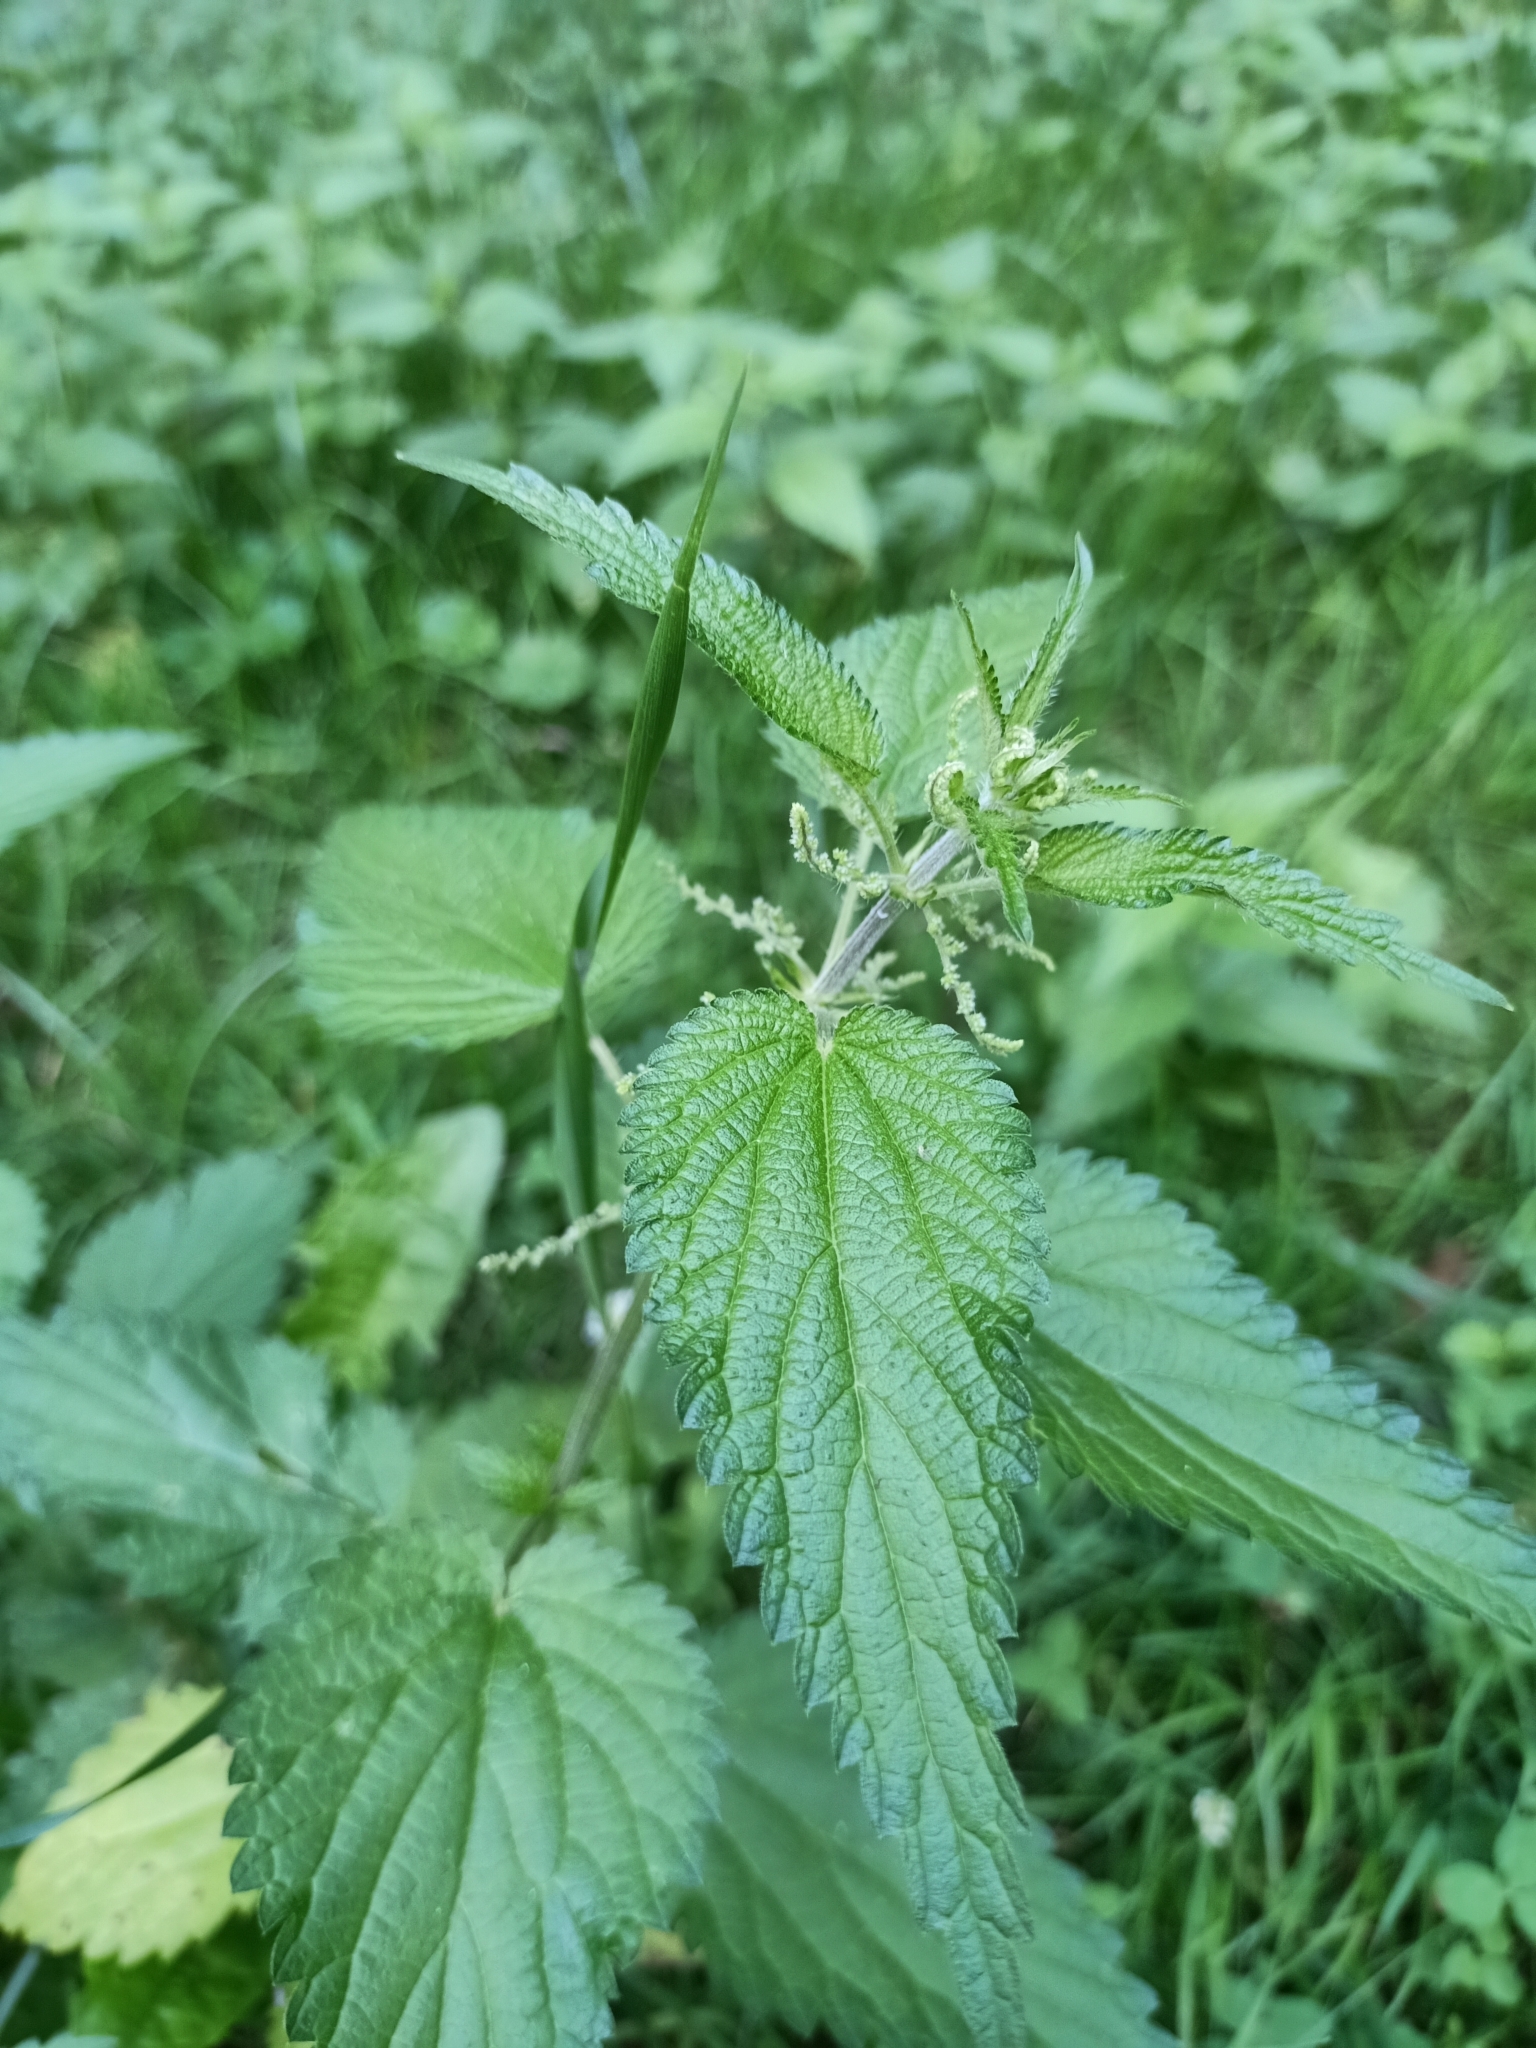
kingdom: Plantae
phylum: Tracheophyta
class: Magnoliopsida
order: Rosales
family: Urticaceae
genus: Urtica
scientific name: Urtica dioica
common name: Common nettle
